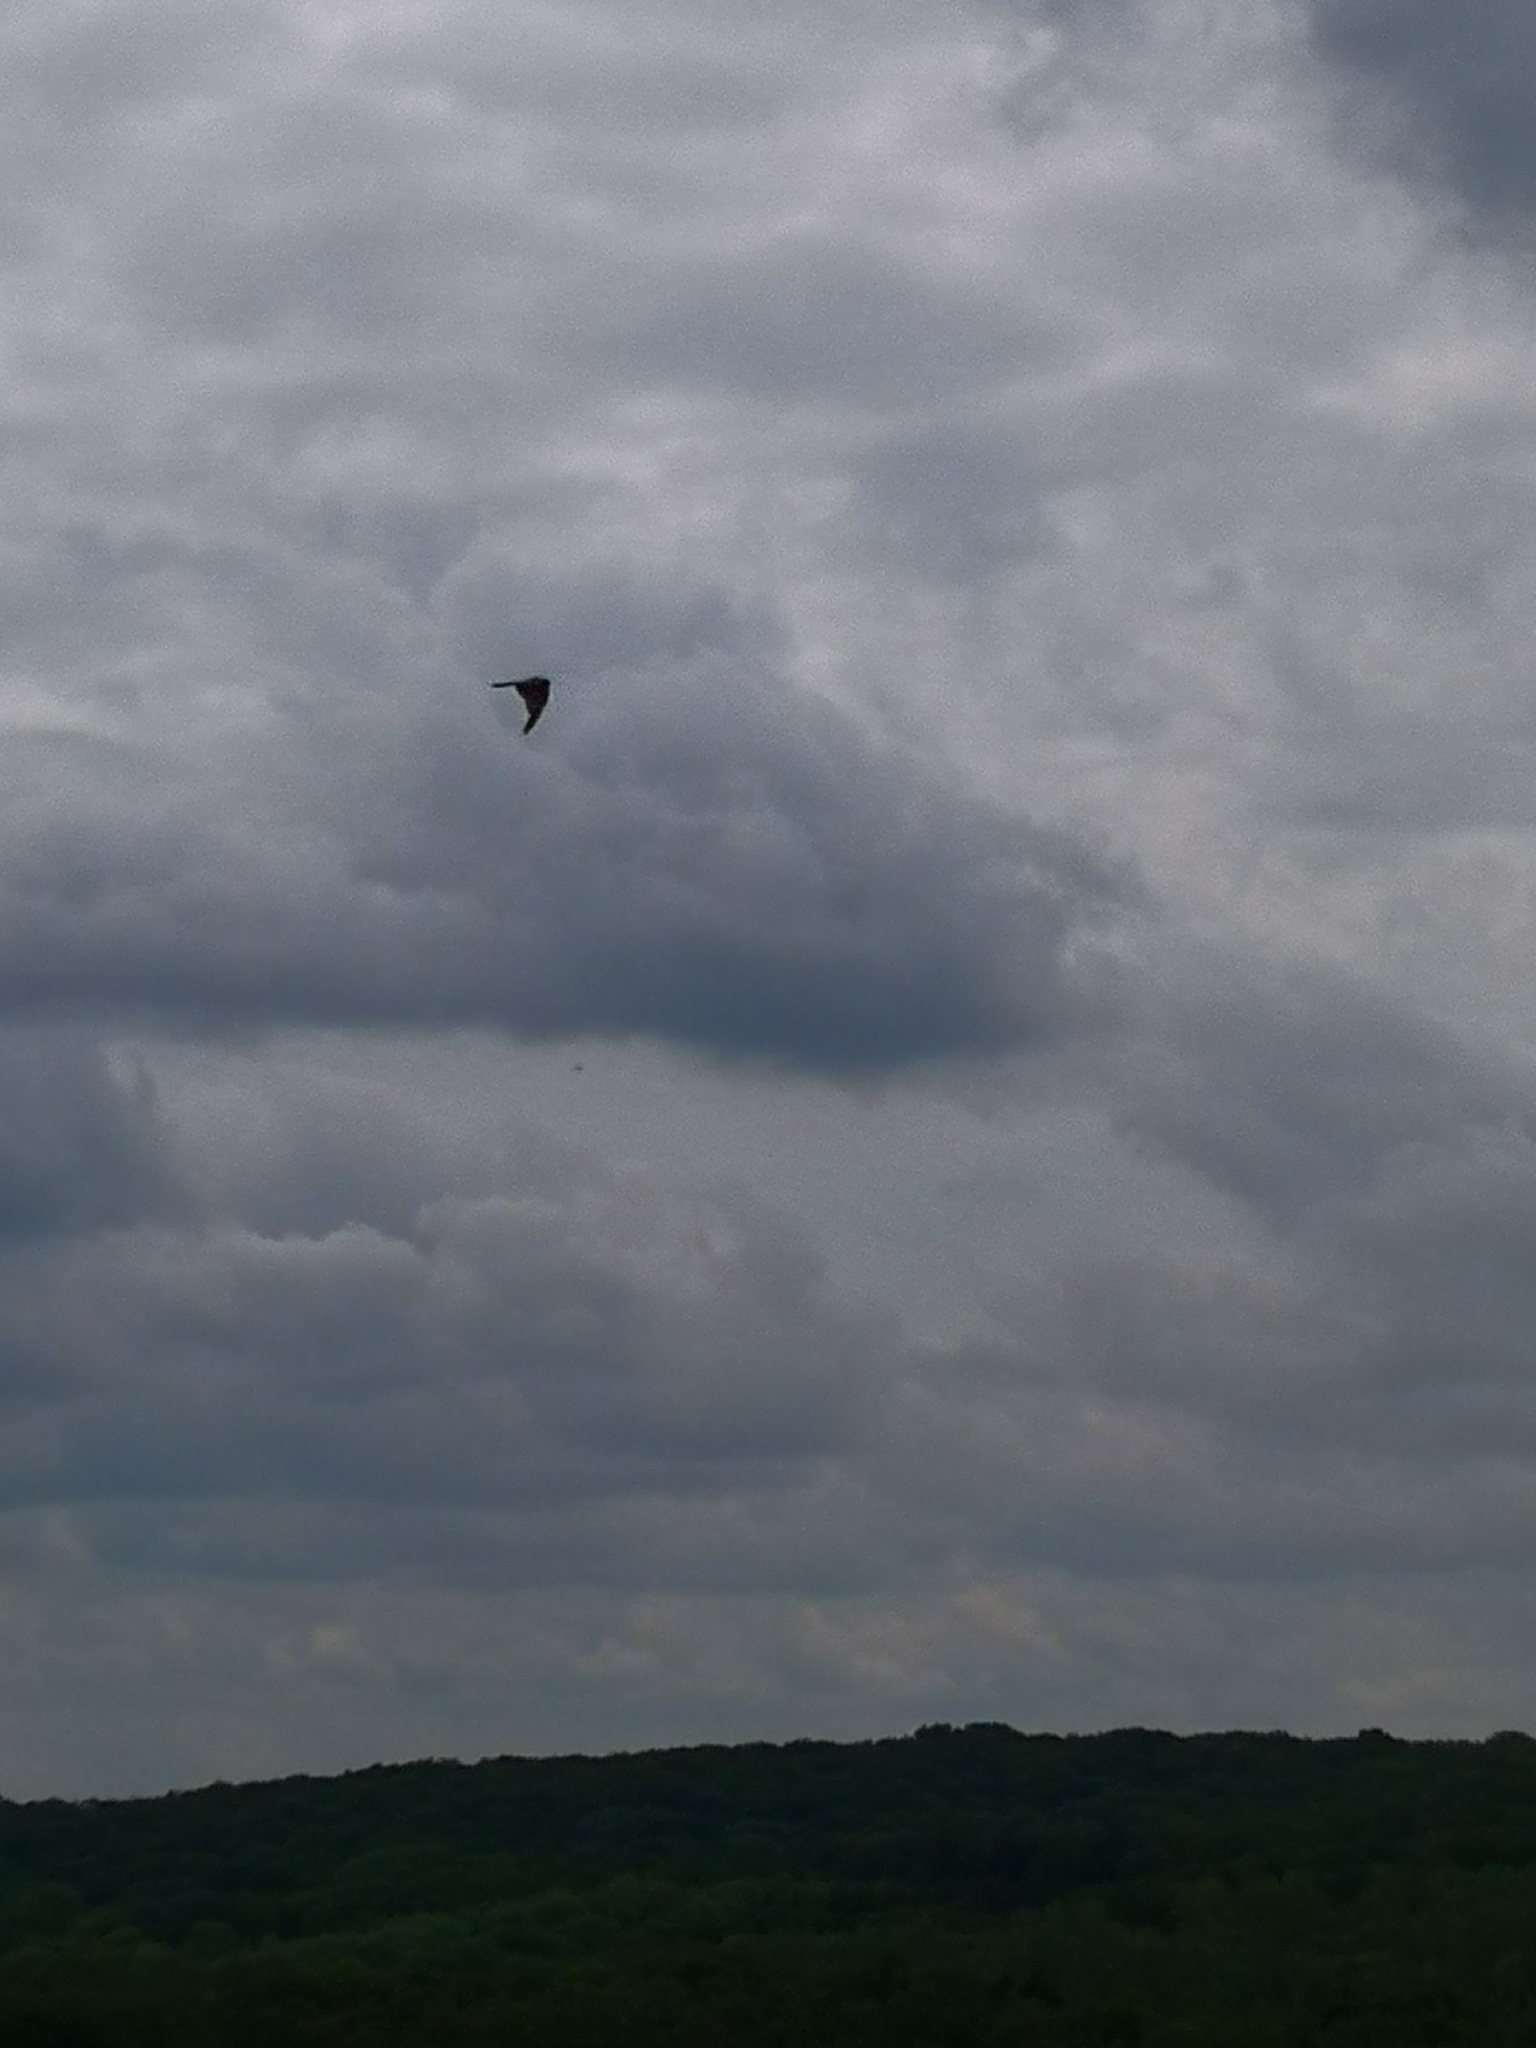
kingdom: Animalia
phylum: Chordata
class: Aves
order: Accipitriformes
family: Accipitridae
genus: Milvus
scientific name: Milvus milvus
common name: Red kite
